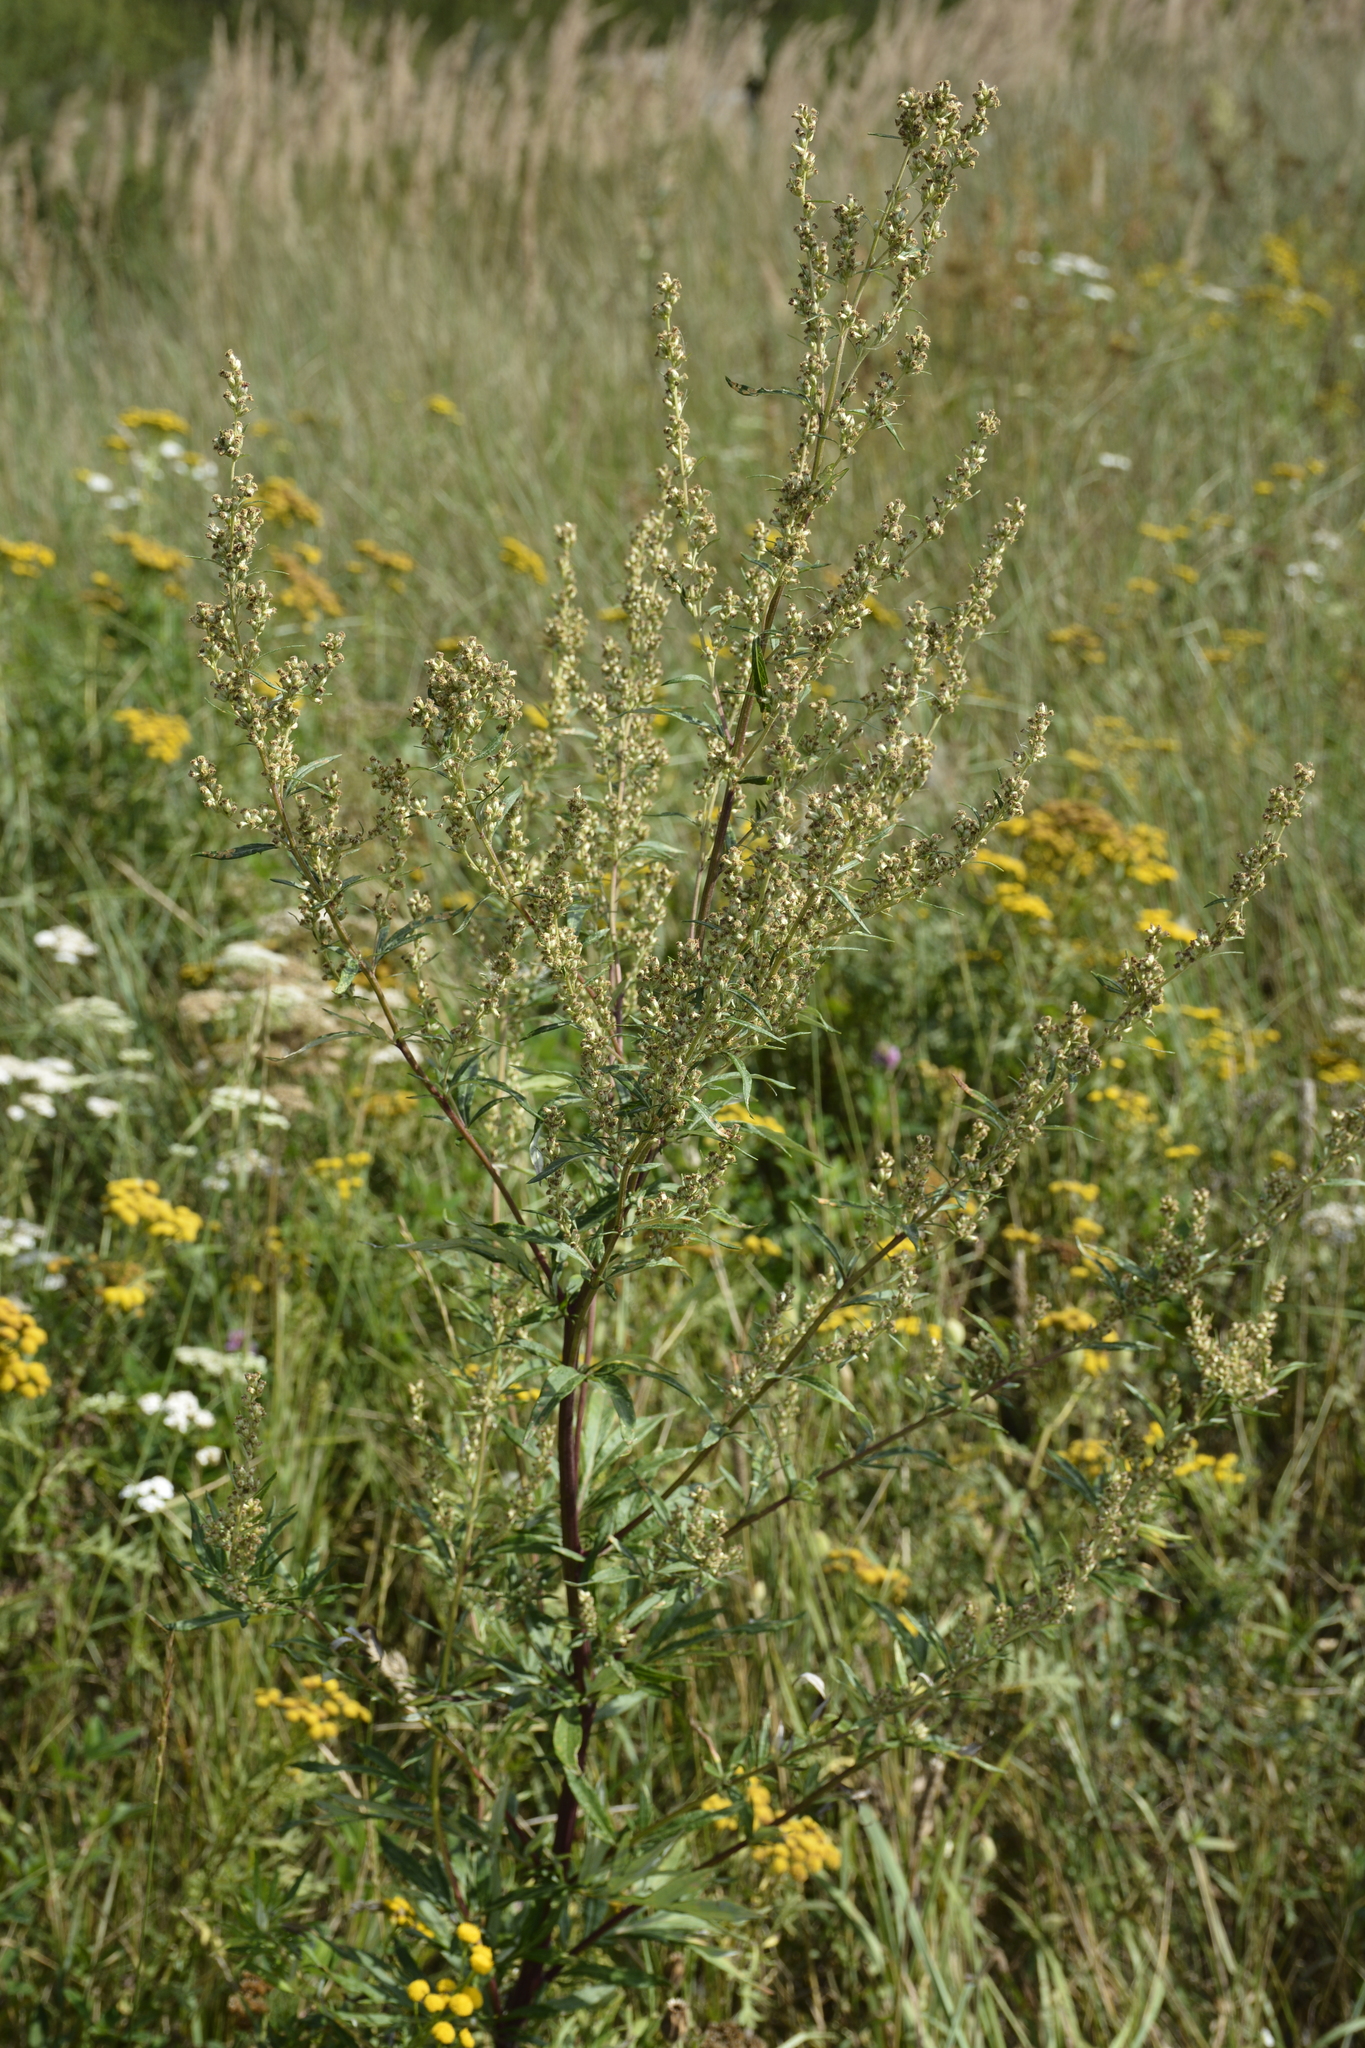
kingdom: Plantae
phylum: Tracheophyta
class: Magnoliopsida
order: Asterales
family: Asteraceae
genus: Artemisia
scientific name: Artemisia vulgaris
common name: Mugwort
